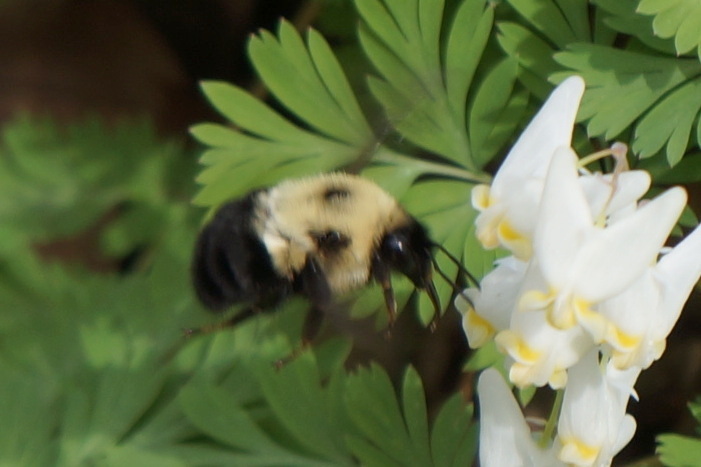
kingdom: Animalia
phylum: Arthropoda
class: Insecta
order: Hymenoptera
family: Apidae
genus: Bombus
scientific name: Bombus bimaculatus
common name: Two-spotted bumble bee
